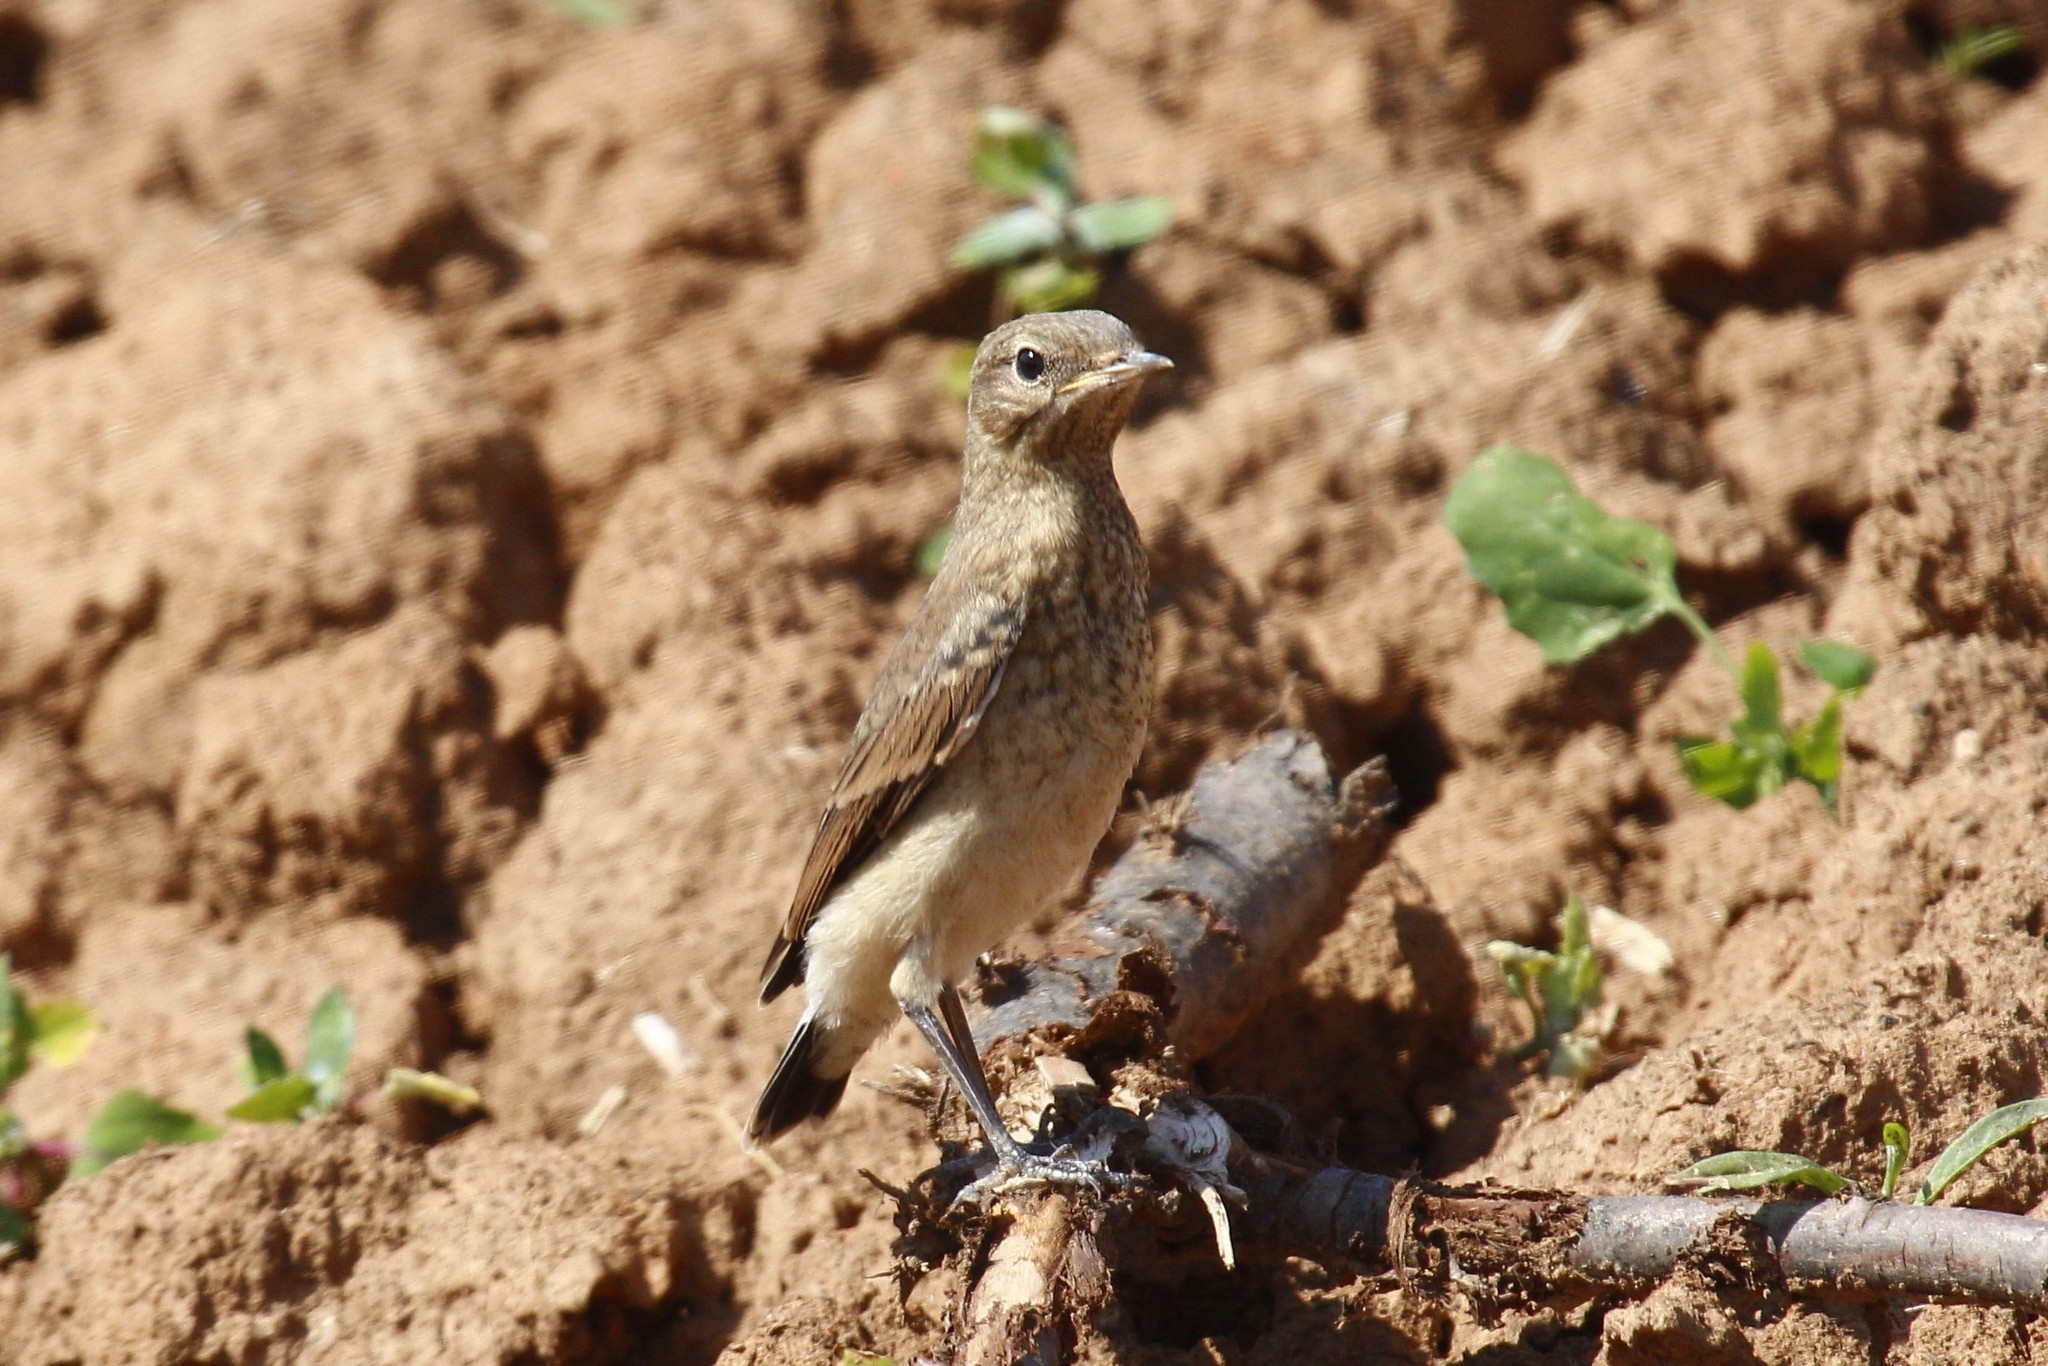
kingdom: Animalia
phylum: Chordata
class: Aves
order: Passeriformes
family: Muscicapidae
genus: Oenanthe
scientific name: Oenanthe oenanthe
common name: Northern wheatear
